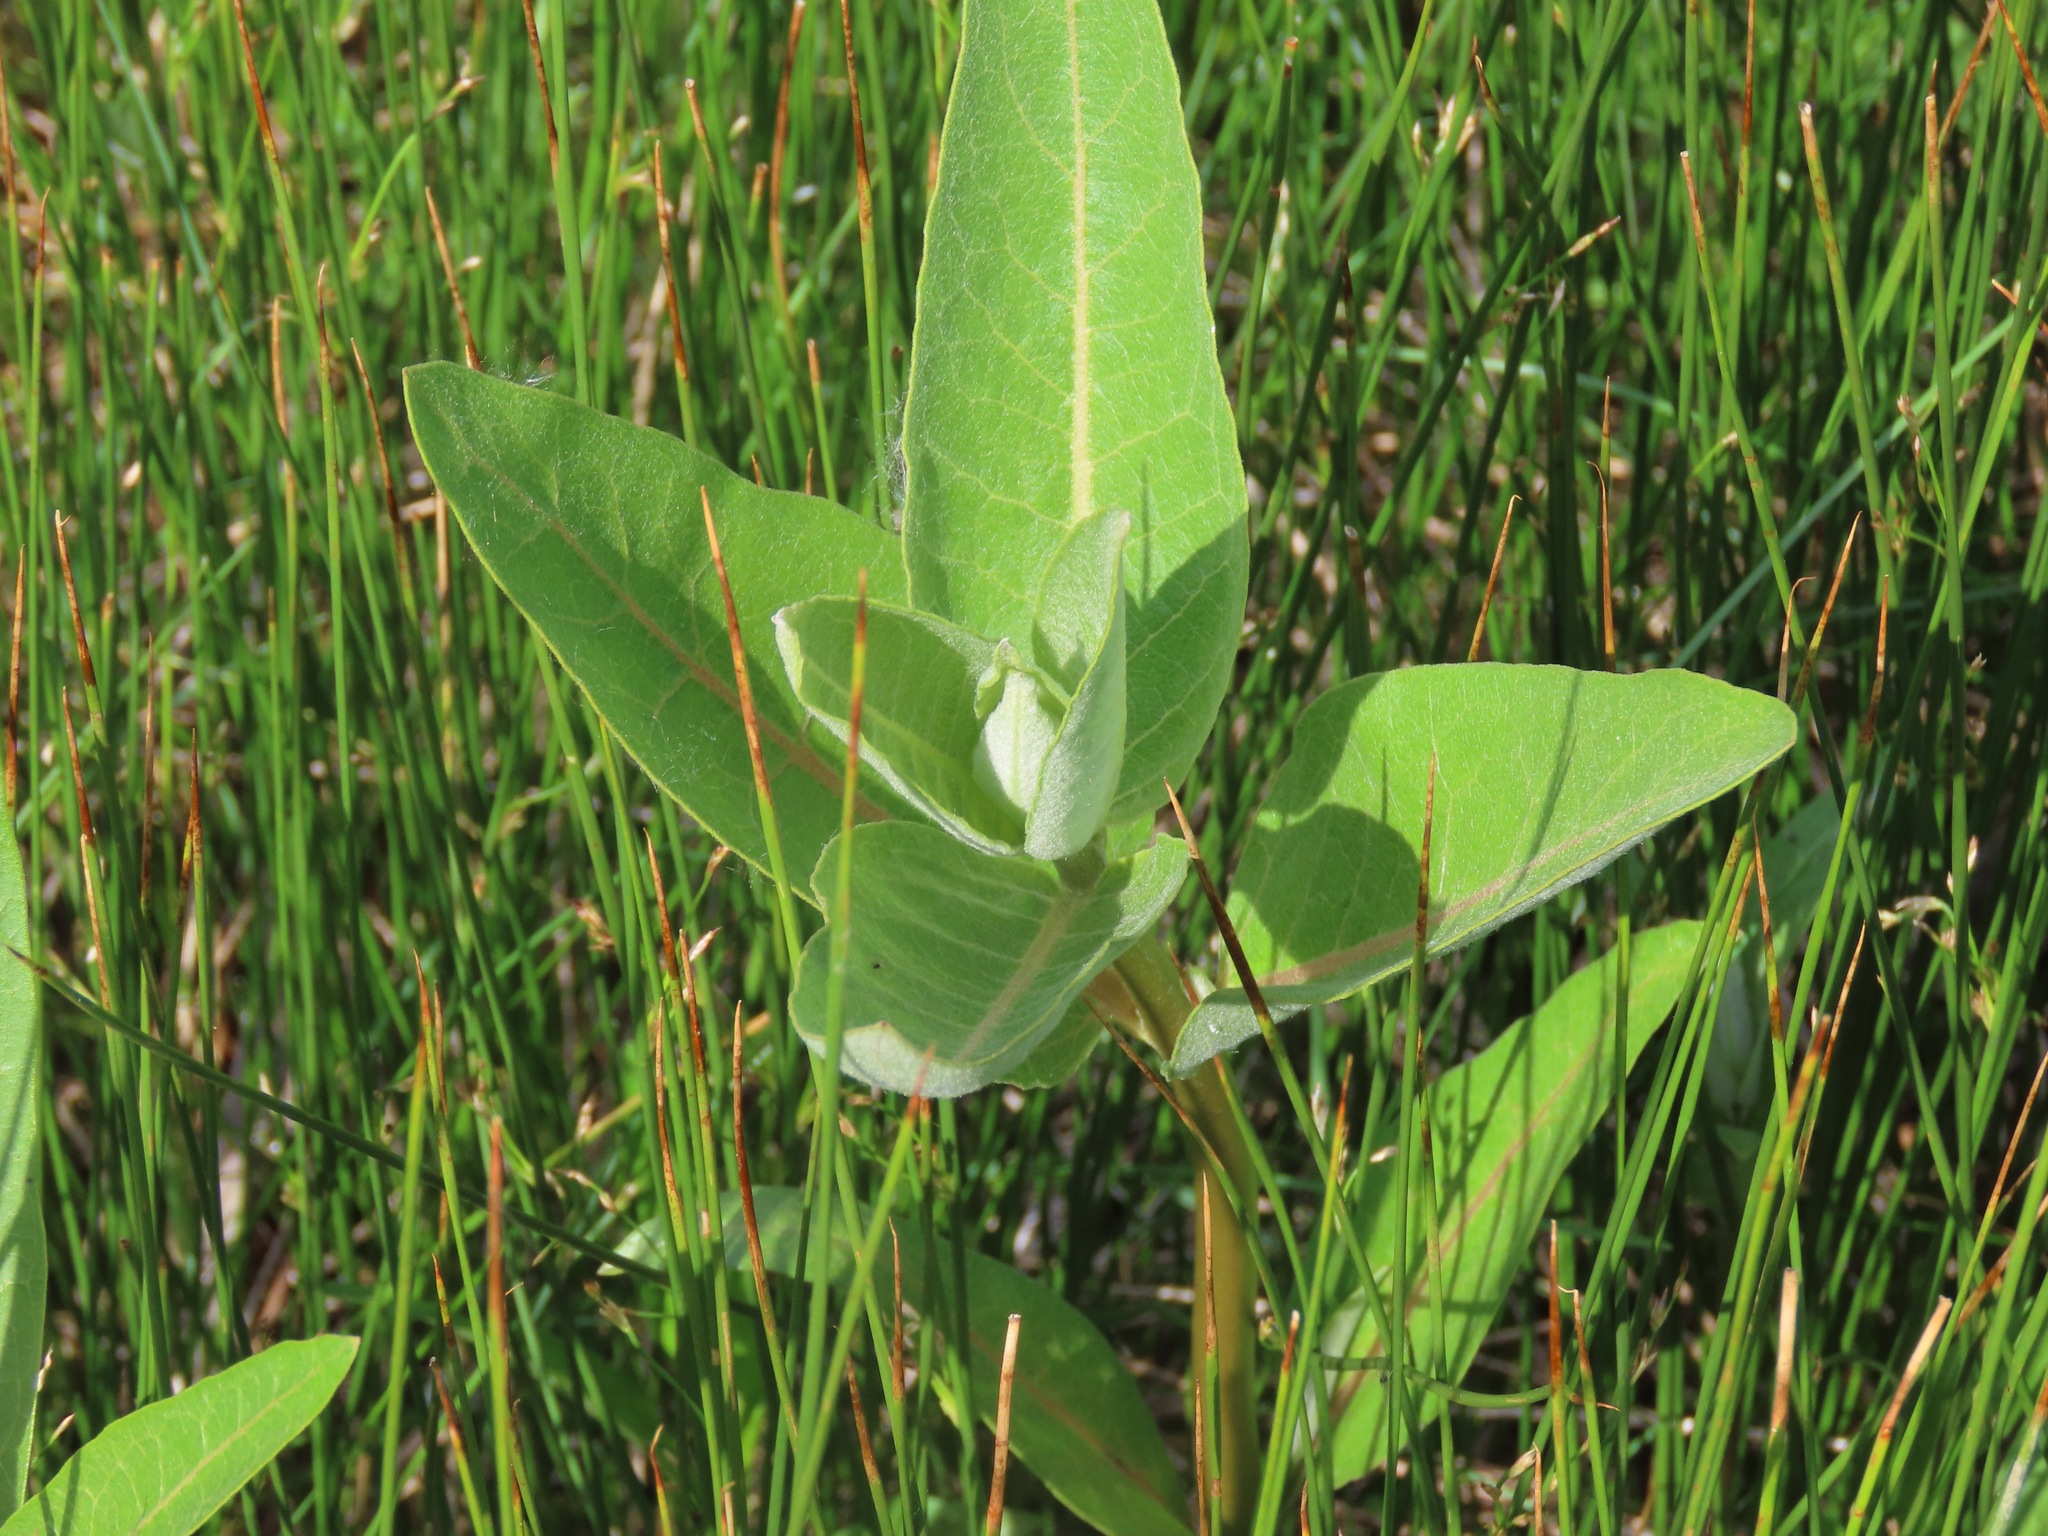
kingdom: Plantae
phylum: Tracheophyta
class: Magnoliopsida
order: Gentianales
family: Apocynaceae
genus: Asclepias
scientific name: Asclepias speciosa
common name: Showy milkweed
